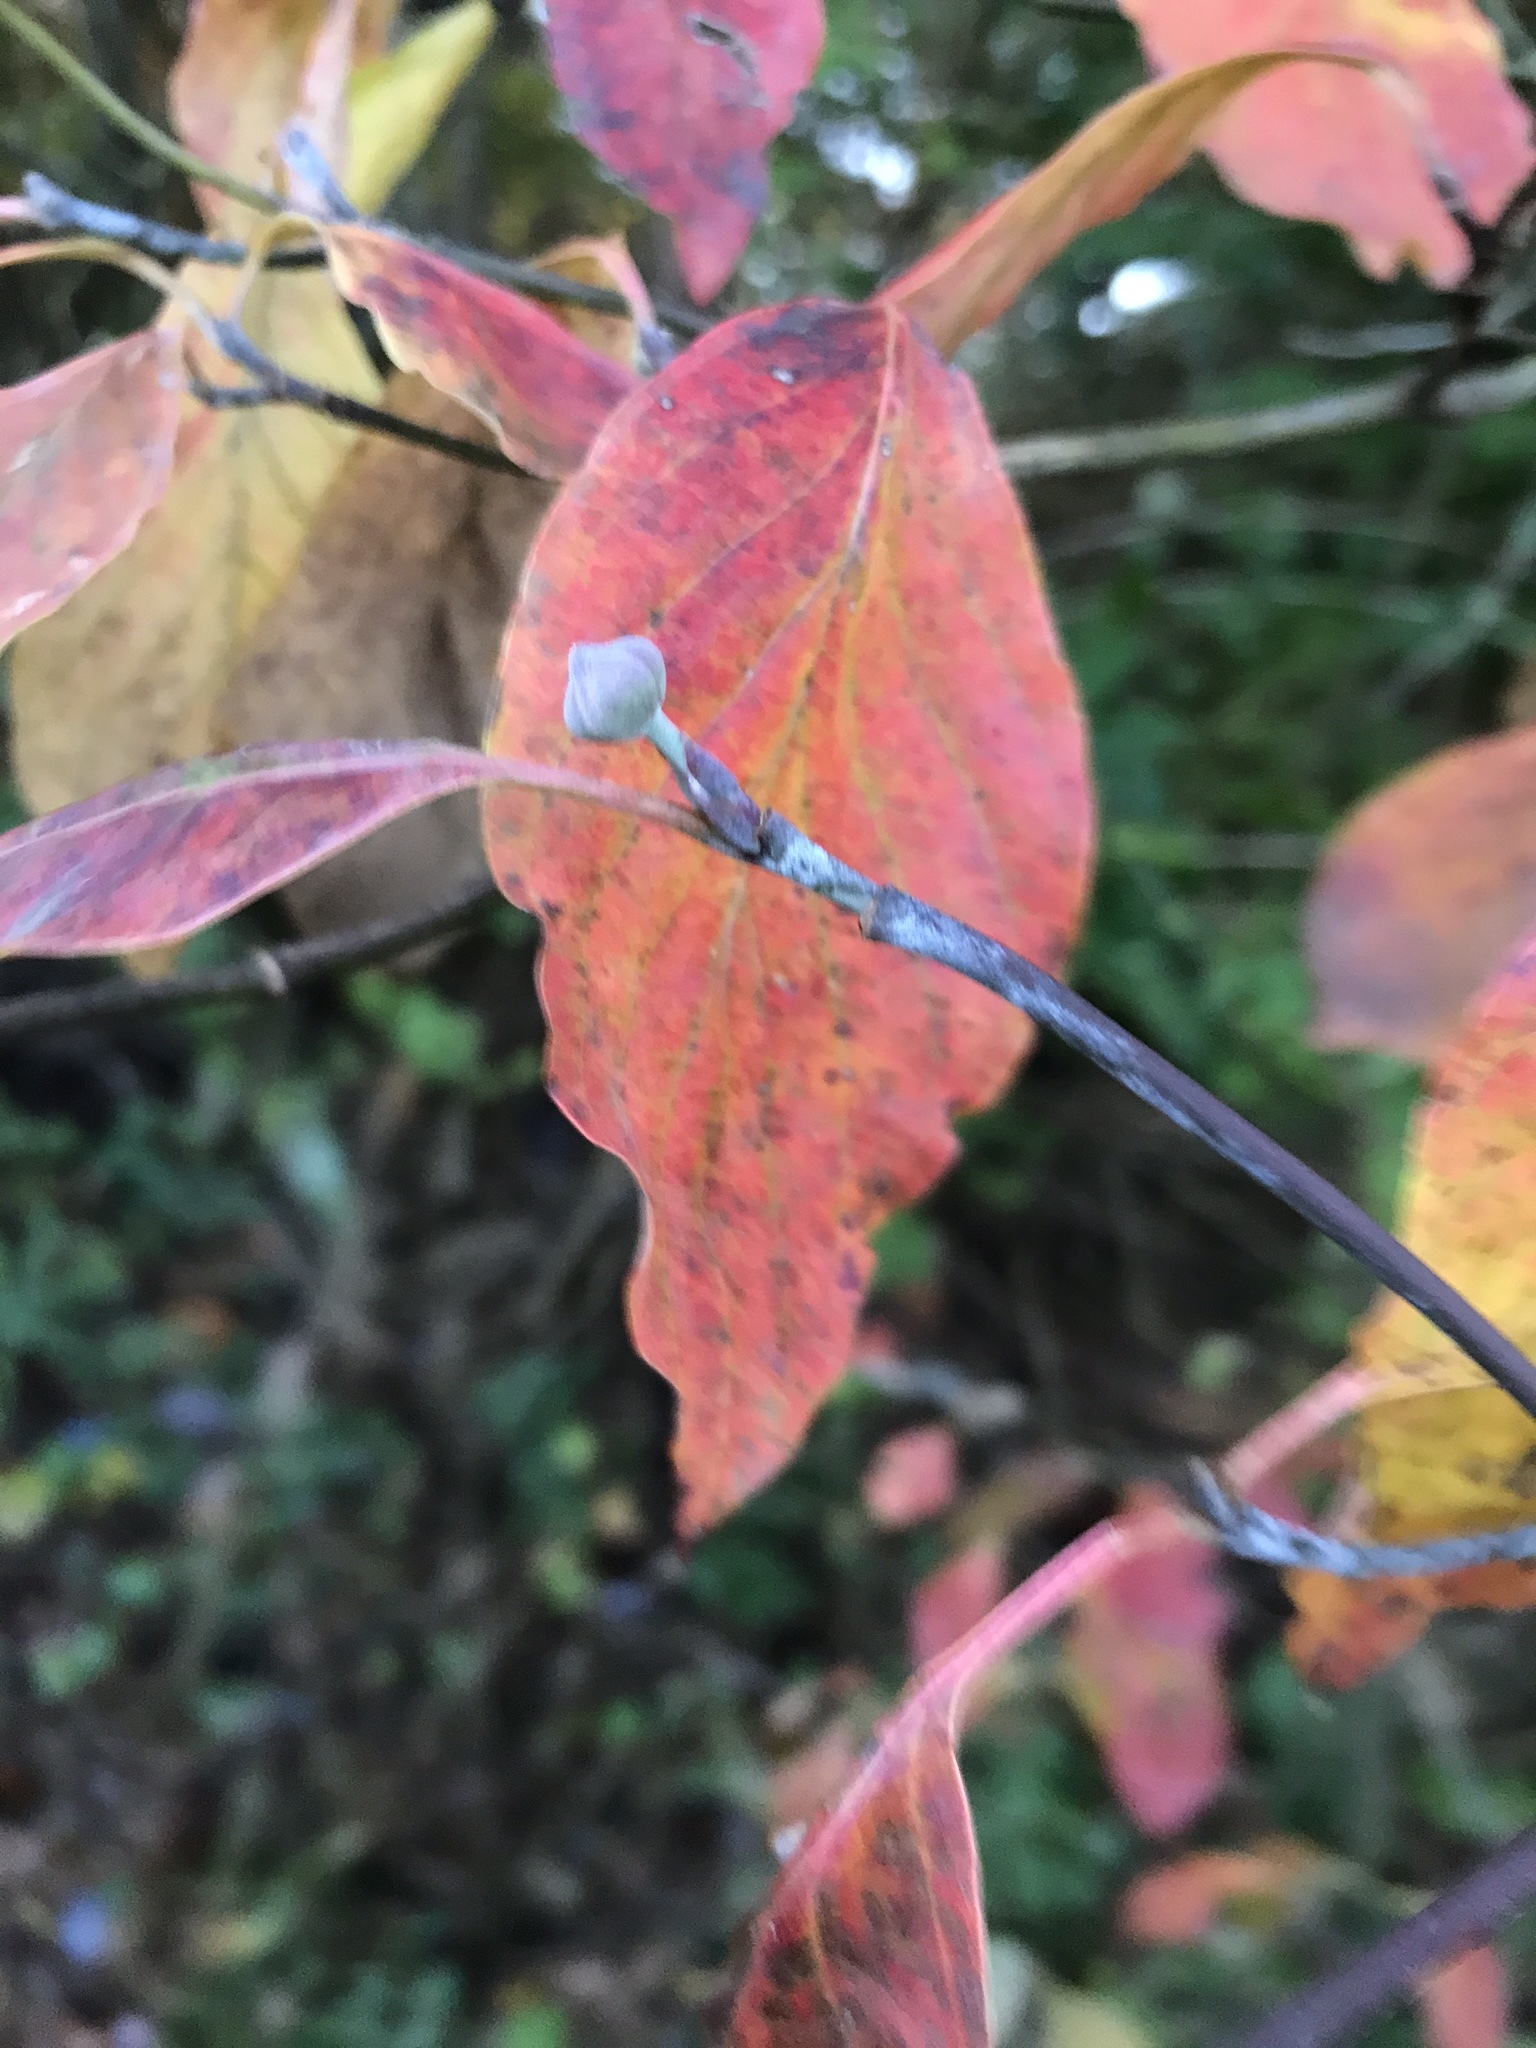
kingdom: Plantae
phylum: Tracheophyta
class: Magnoliopsida
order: Cornales
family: Cornaceae
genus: Cornus
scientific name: Cornus florida
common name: Flowering dogwood
